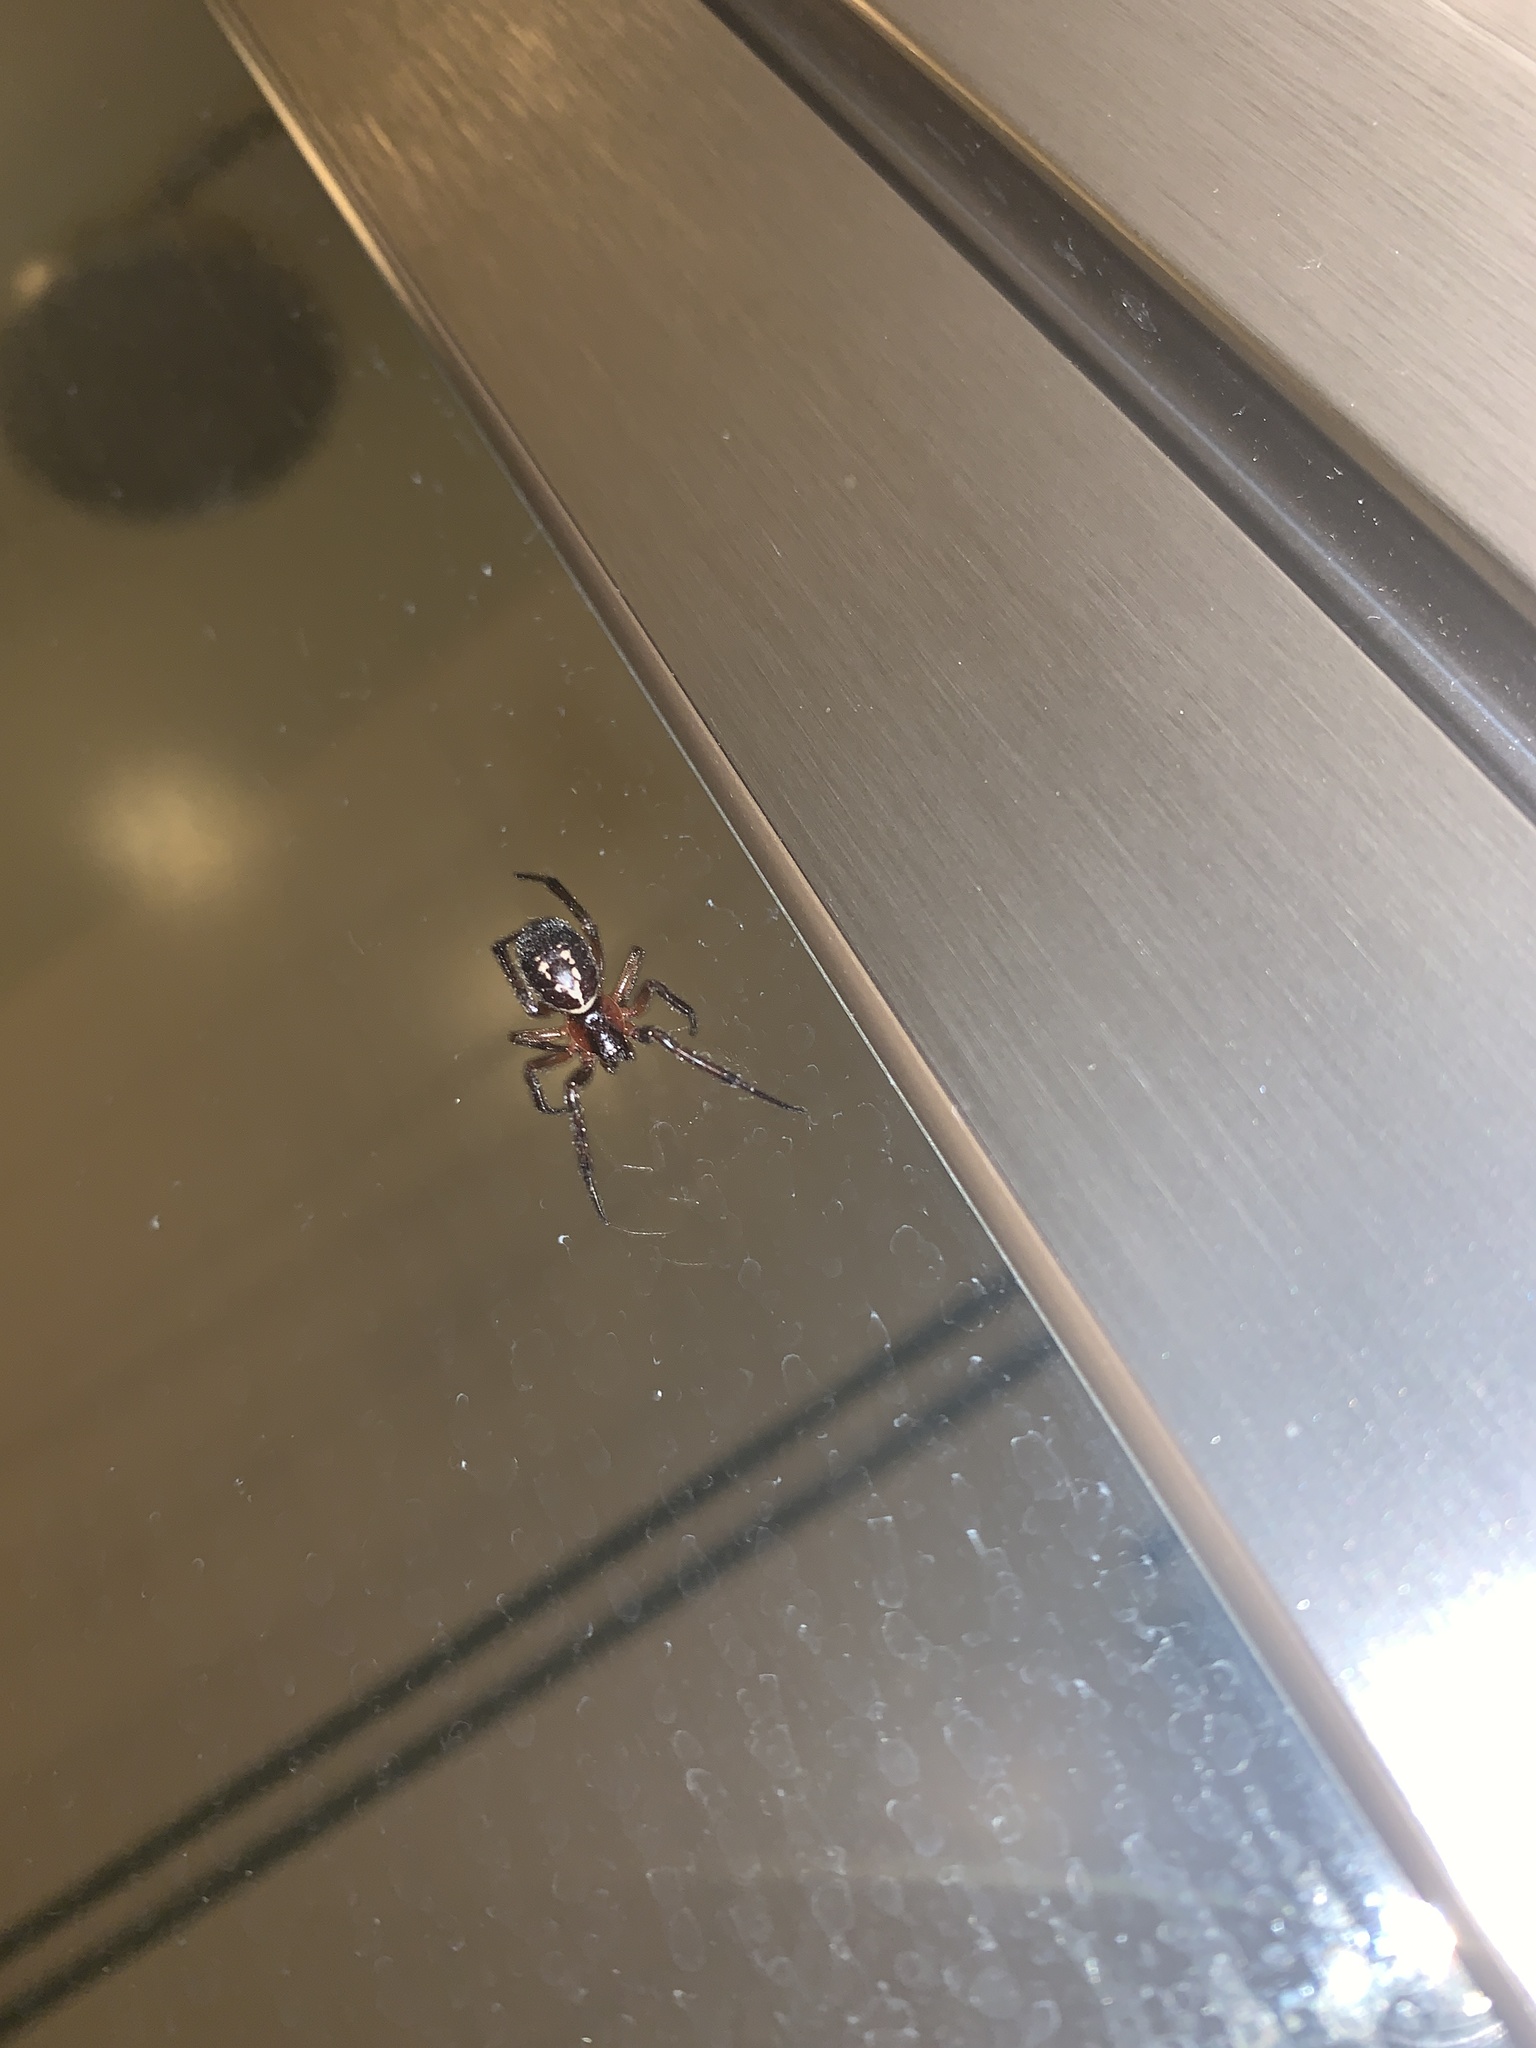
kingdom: Animalia
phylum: Arthropoda
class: Arachnida
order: Araneae
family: Theridiidae
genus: Steatoda
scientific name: Steatoda nobilis
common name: Cobweb weaver
